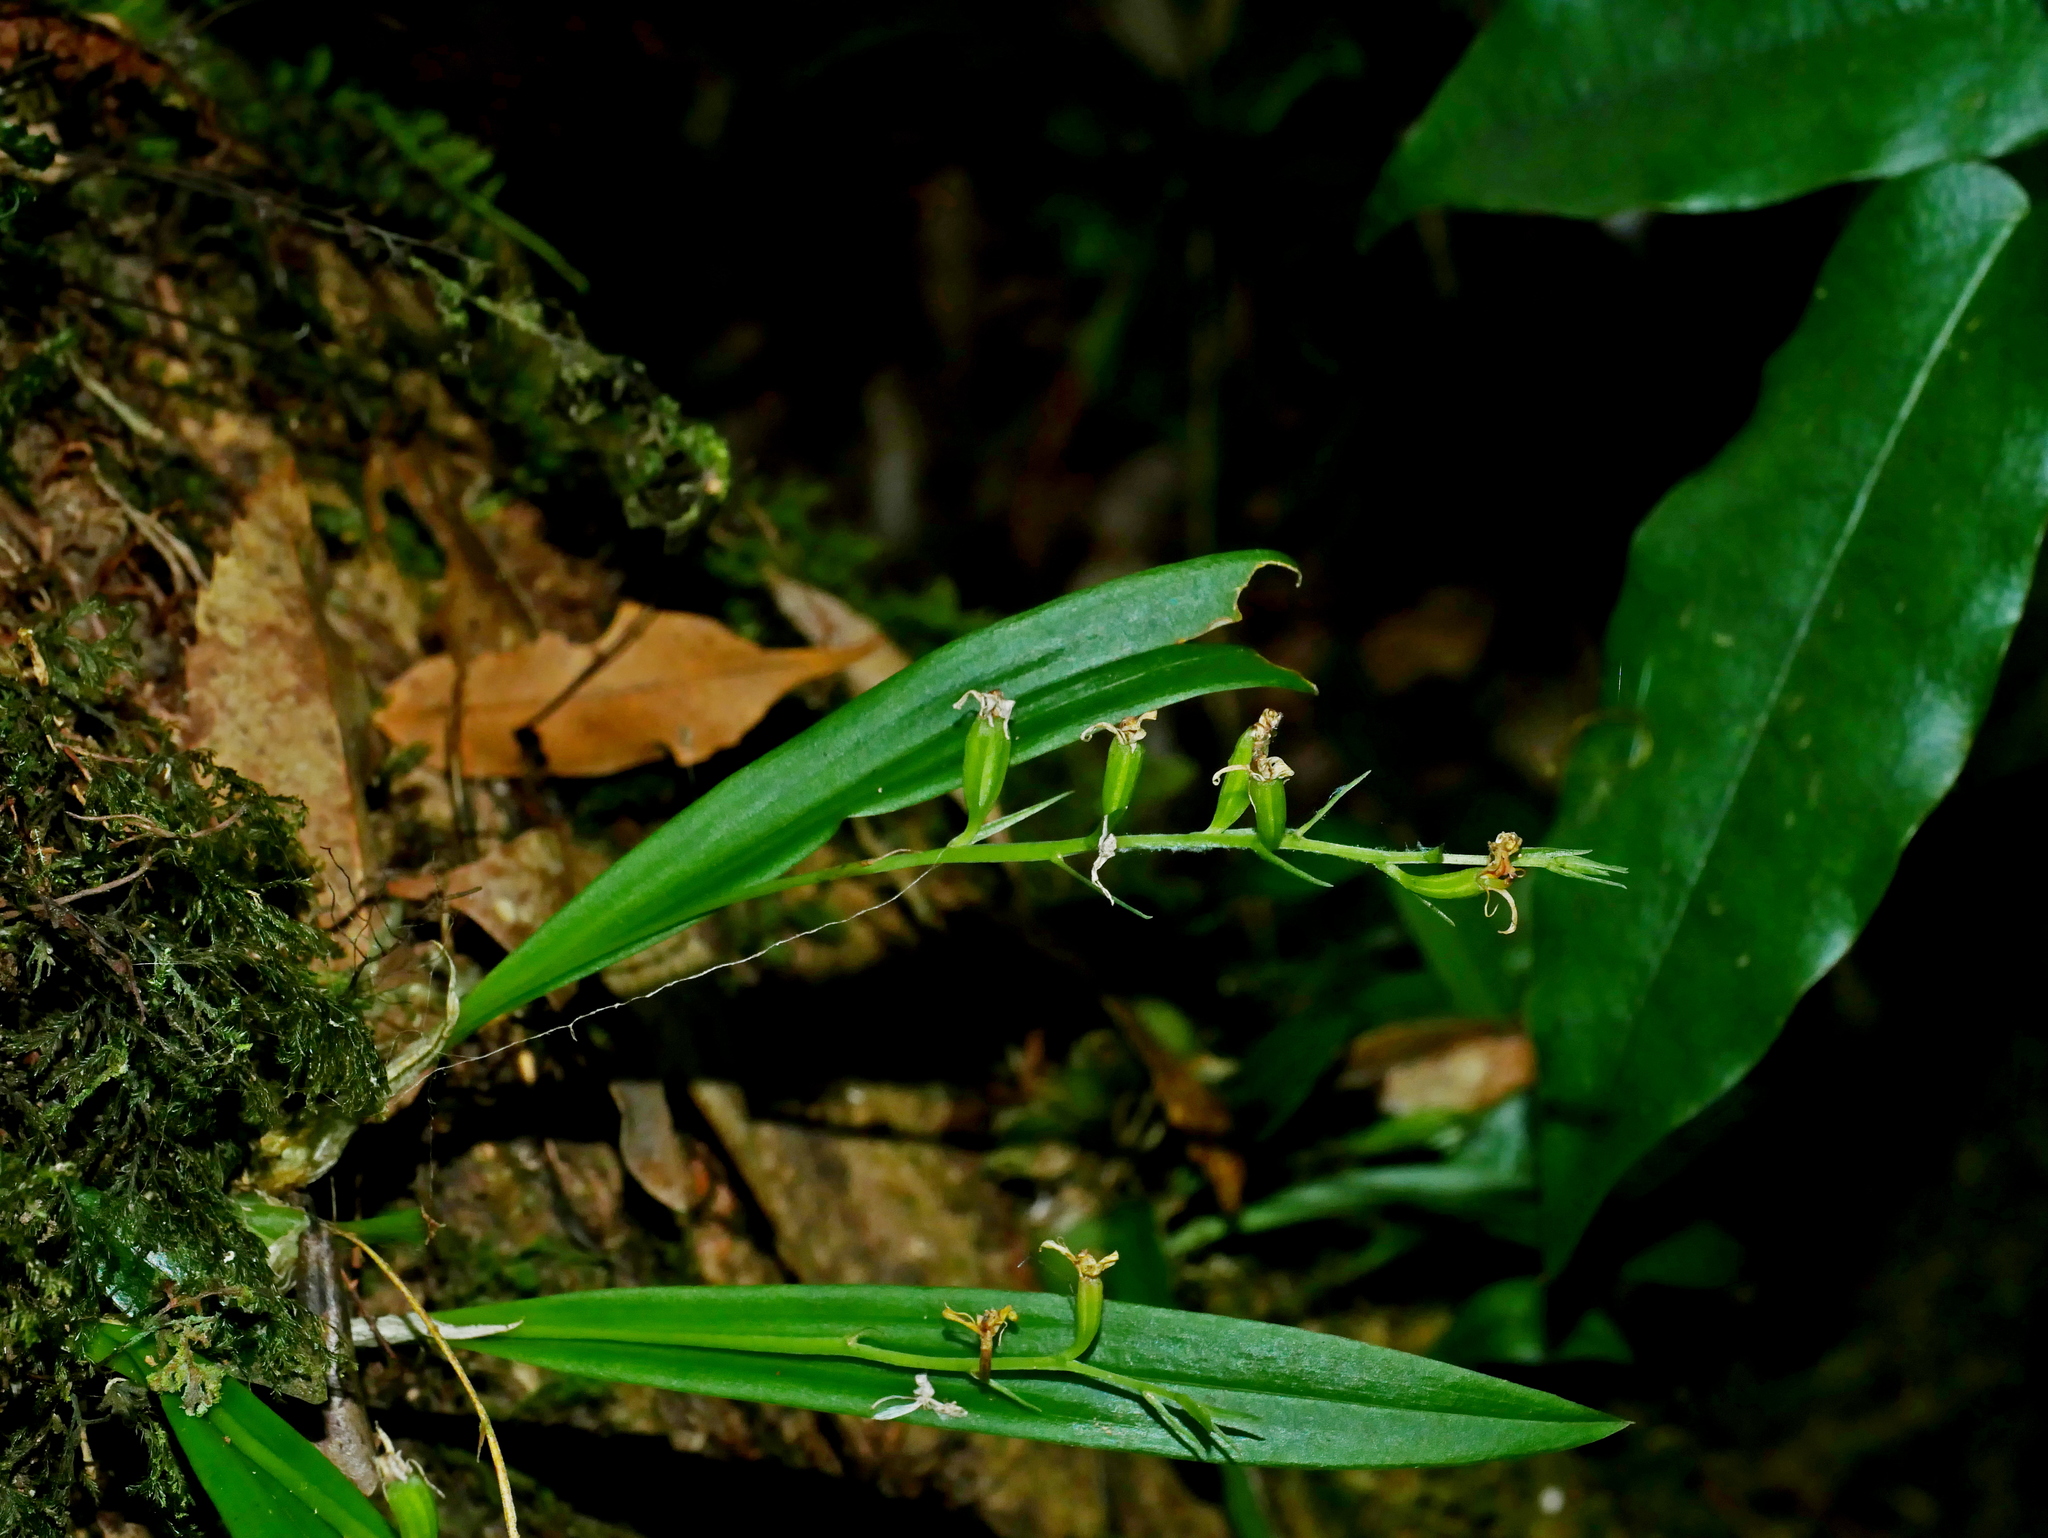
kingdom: Plantae
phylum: Tracheophyta
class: Liliopsida
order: Asparagales
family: Orchidaceae
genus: Liparis
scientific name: Liparis laurisilvatica
